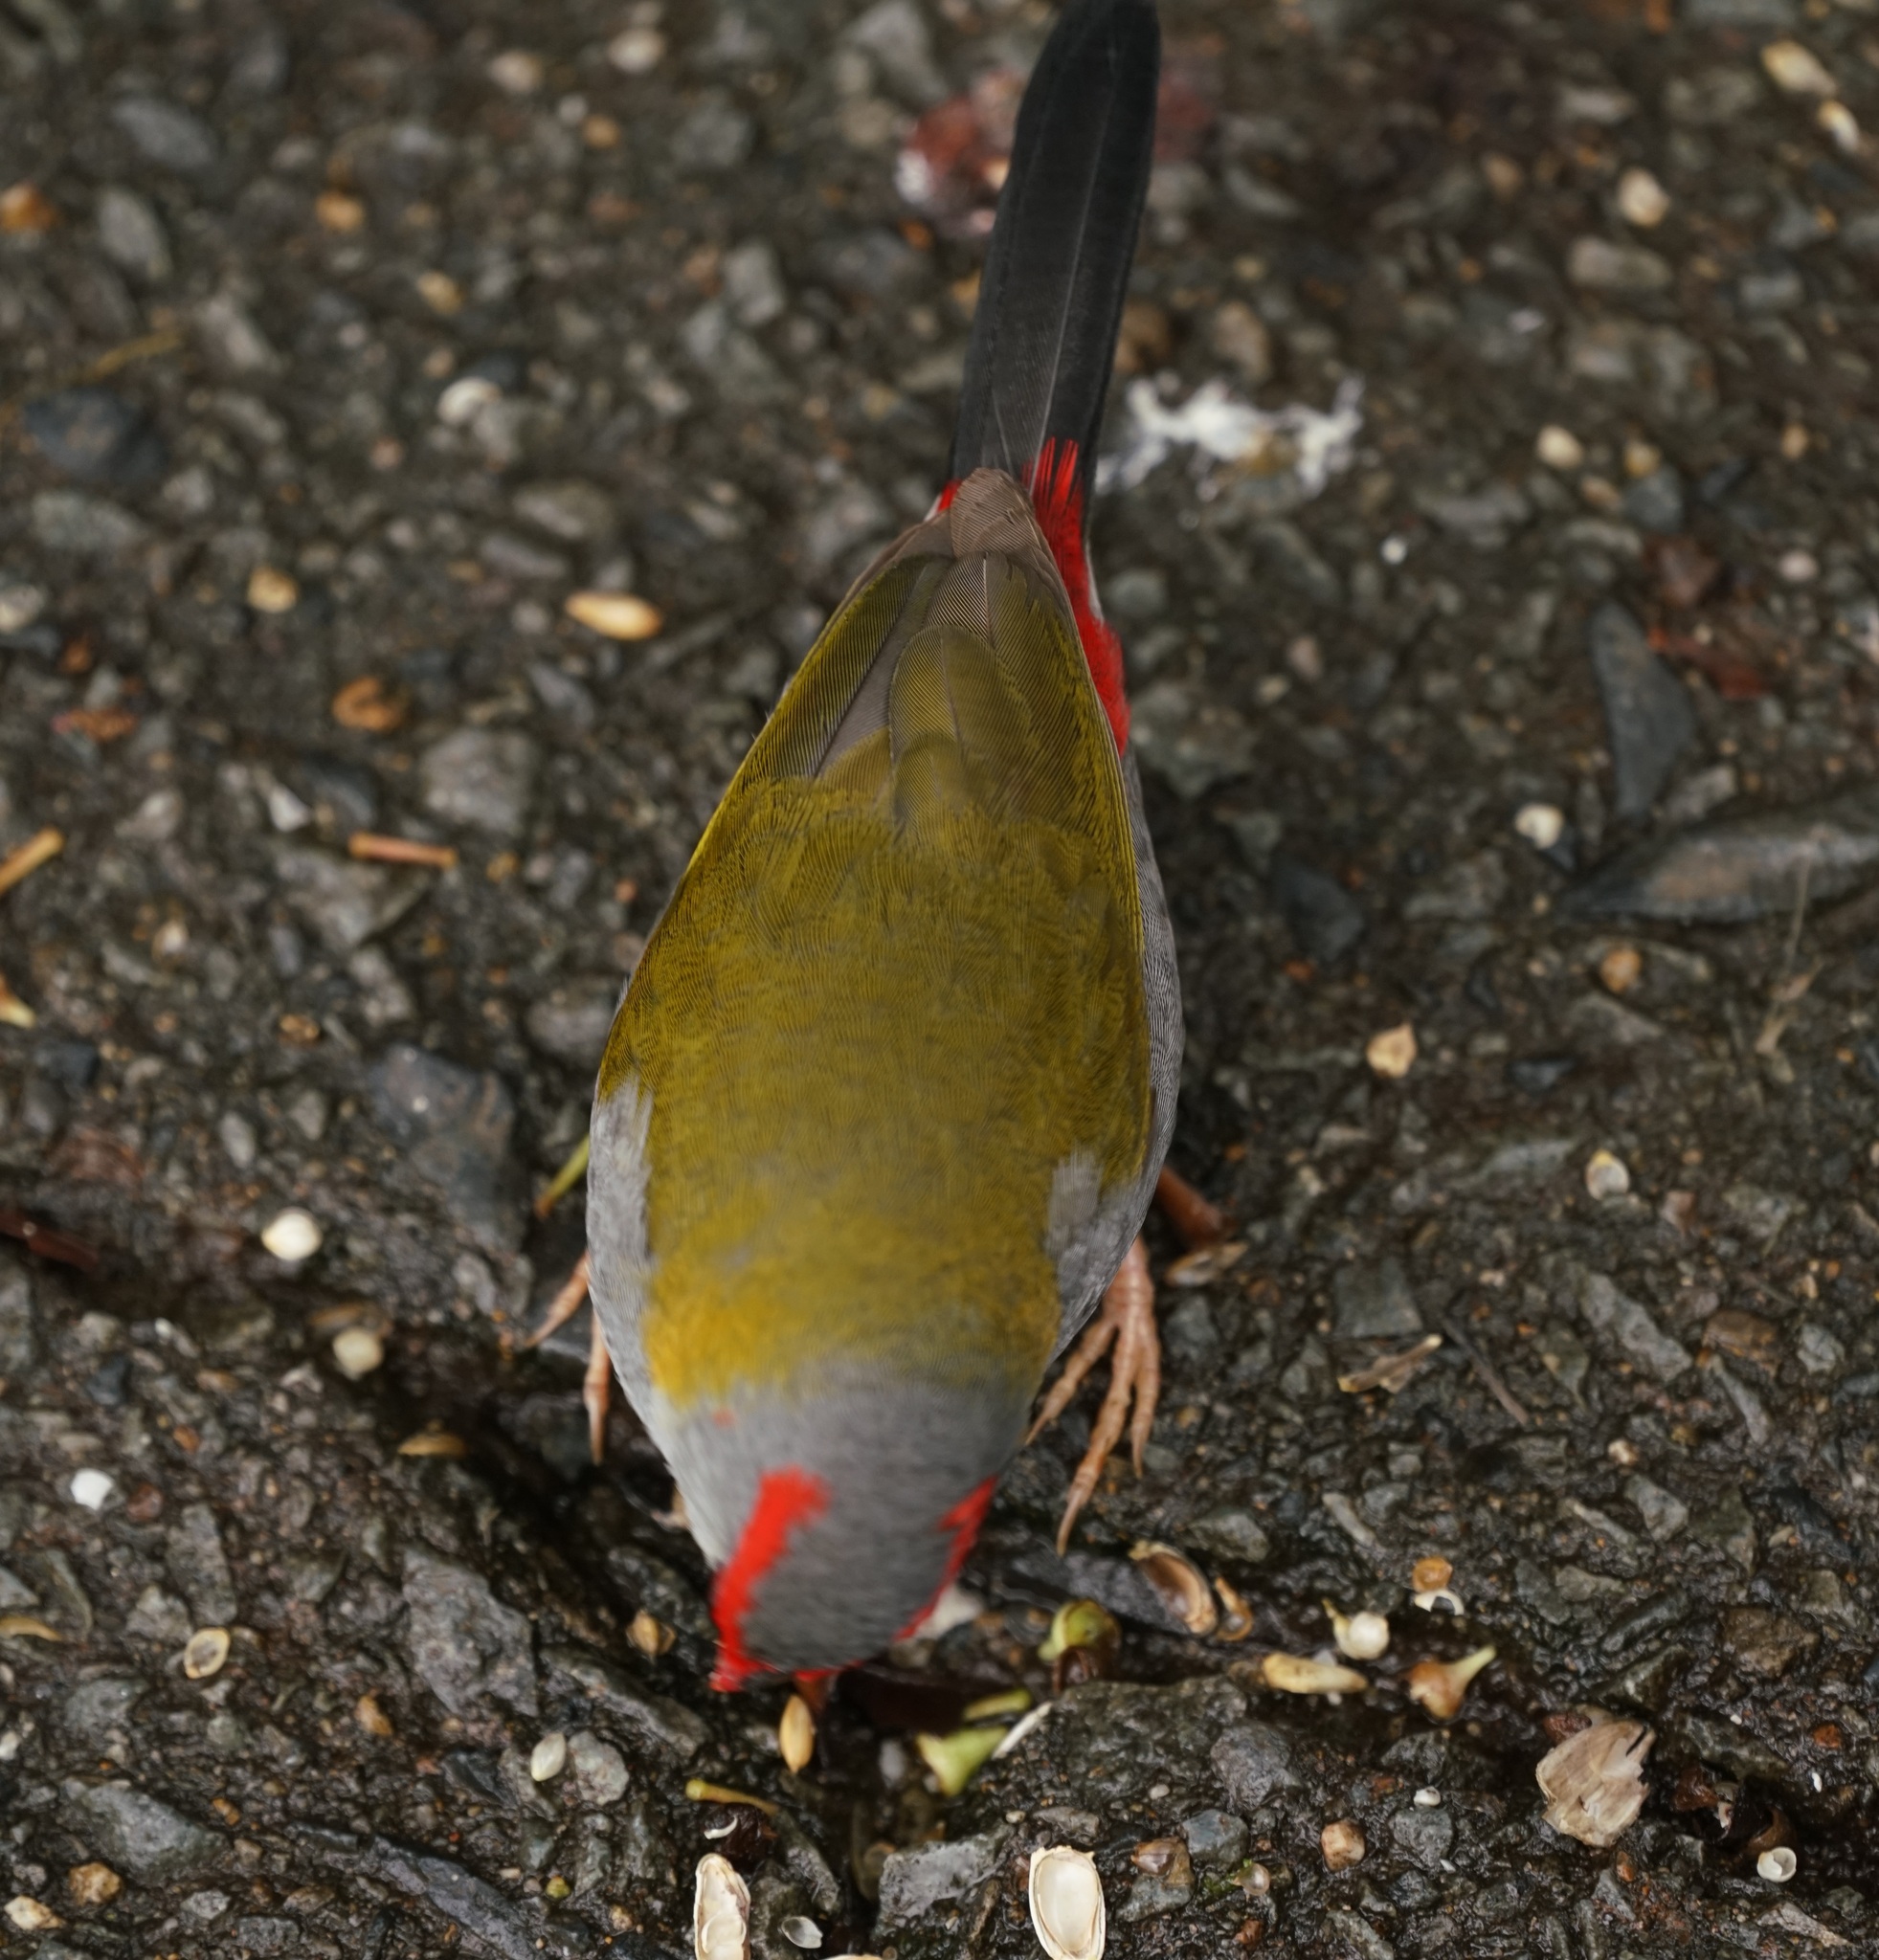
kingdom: Animalia
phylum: Chordata
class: Aves
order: Passeriformes
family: Estrildidae
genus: Neochmia
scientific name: Neochmia temporalis
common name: Red-browed finch
